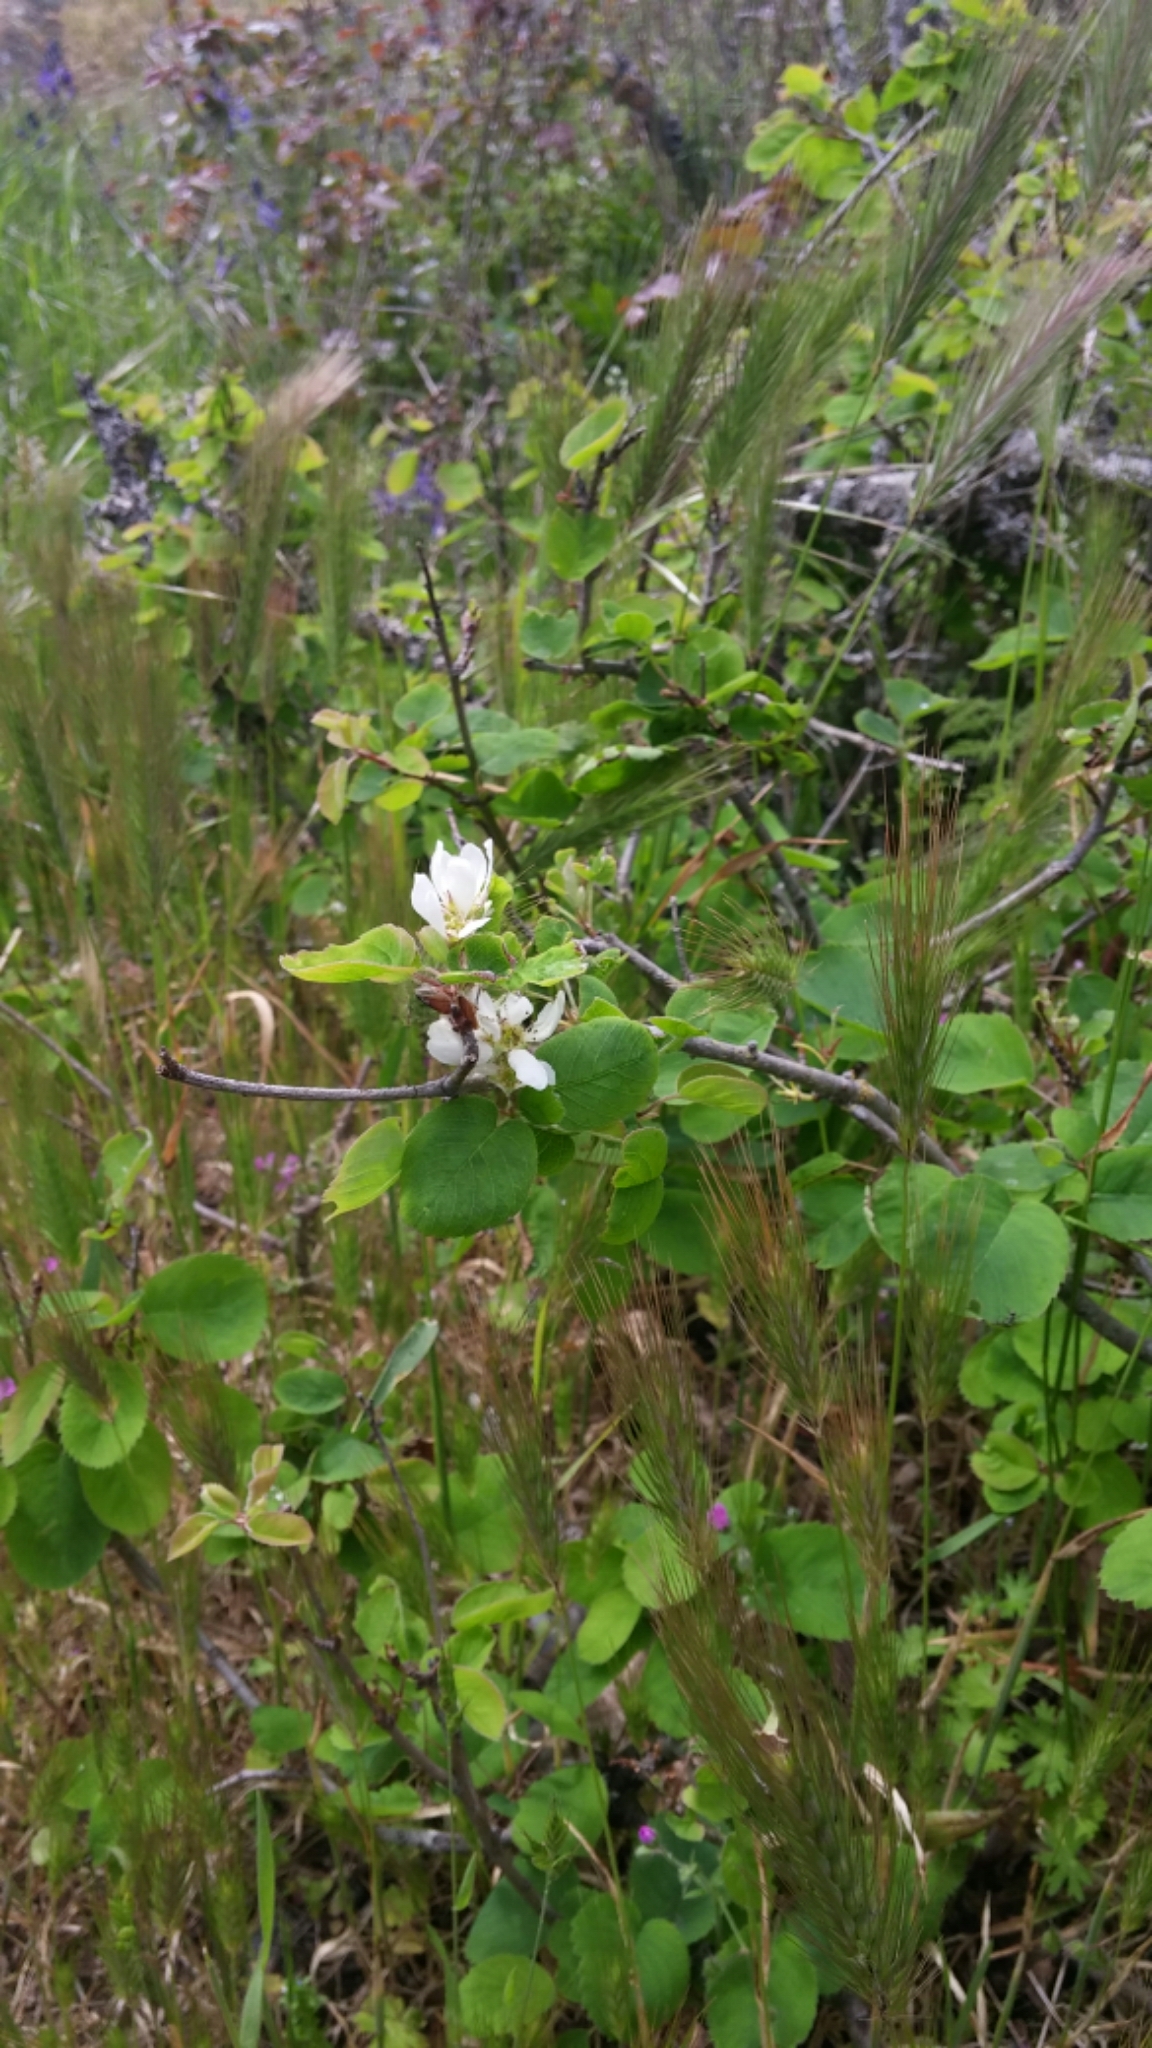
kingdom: Plantae
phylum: Tracheophyta
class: Magnoliopsida
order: Rosales
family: Rosaceae
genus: Amelanchier
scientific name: Amelanchier alnifolia
